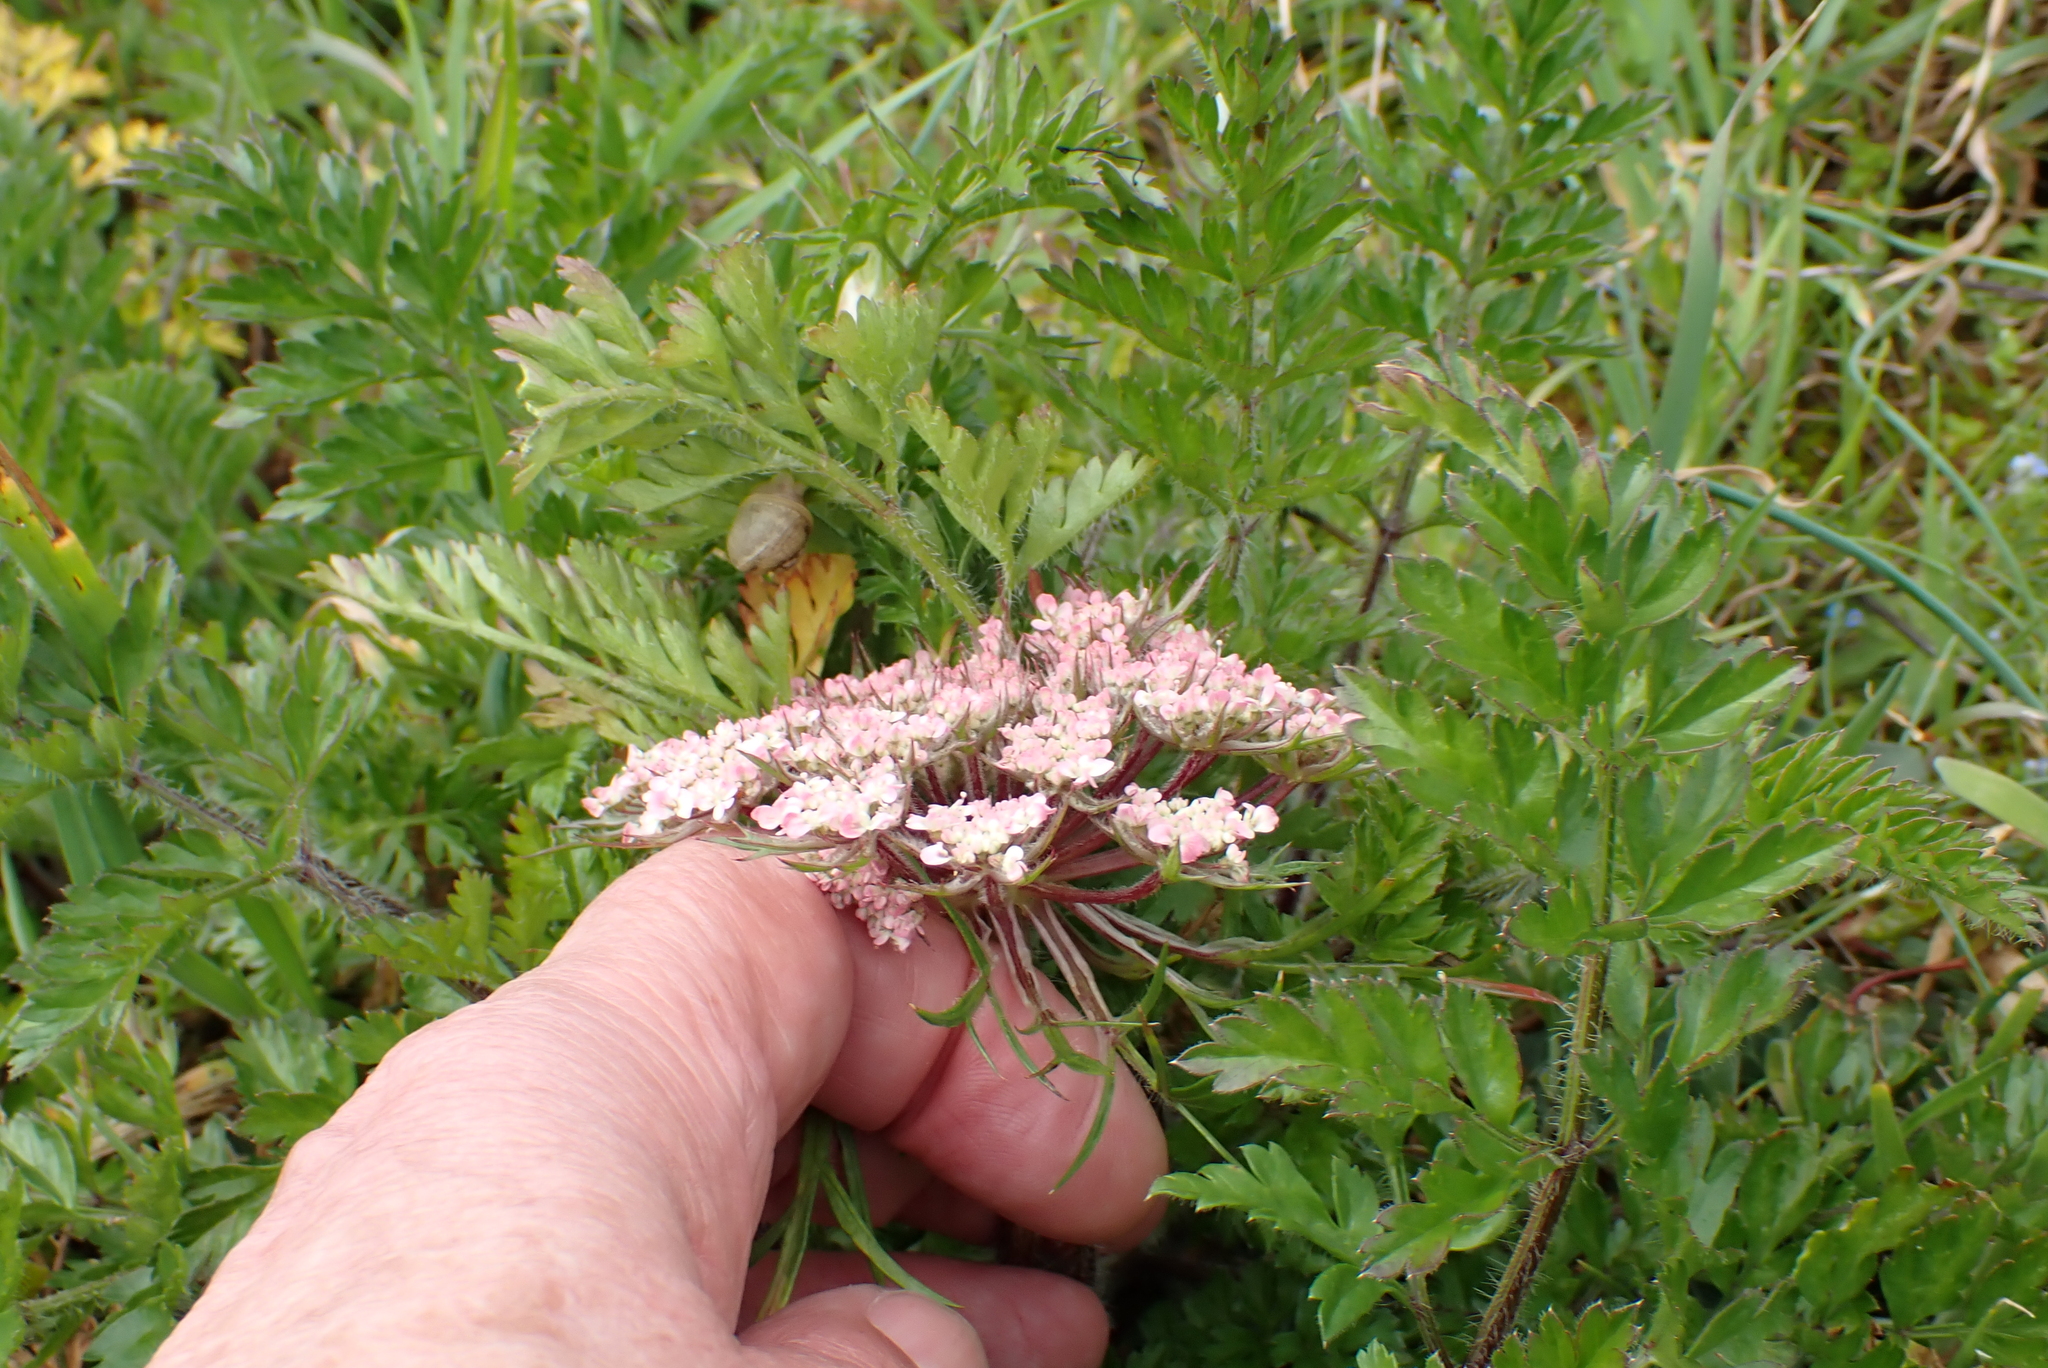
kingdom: Plantae
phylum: Tracheophyta
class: Magnoliopsida
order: Apiales
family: Apiaceae
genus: Daucus
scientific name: Daucus carota
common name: Wild carrot
